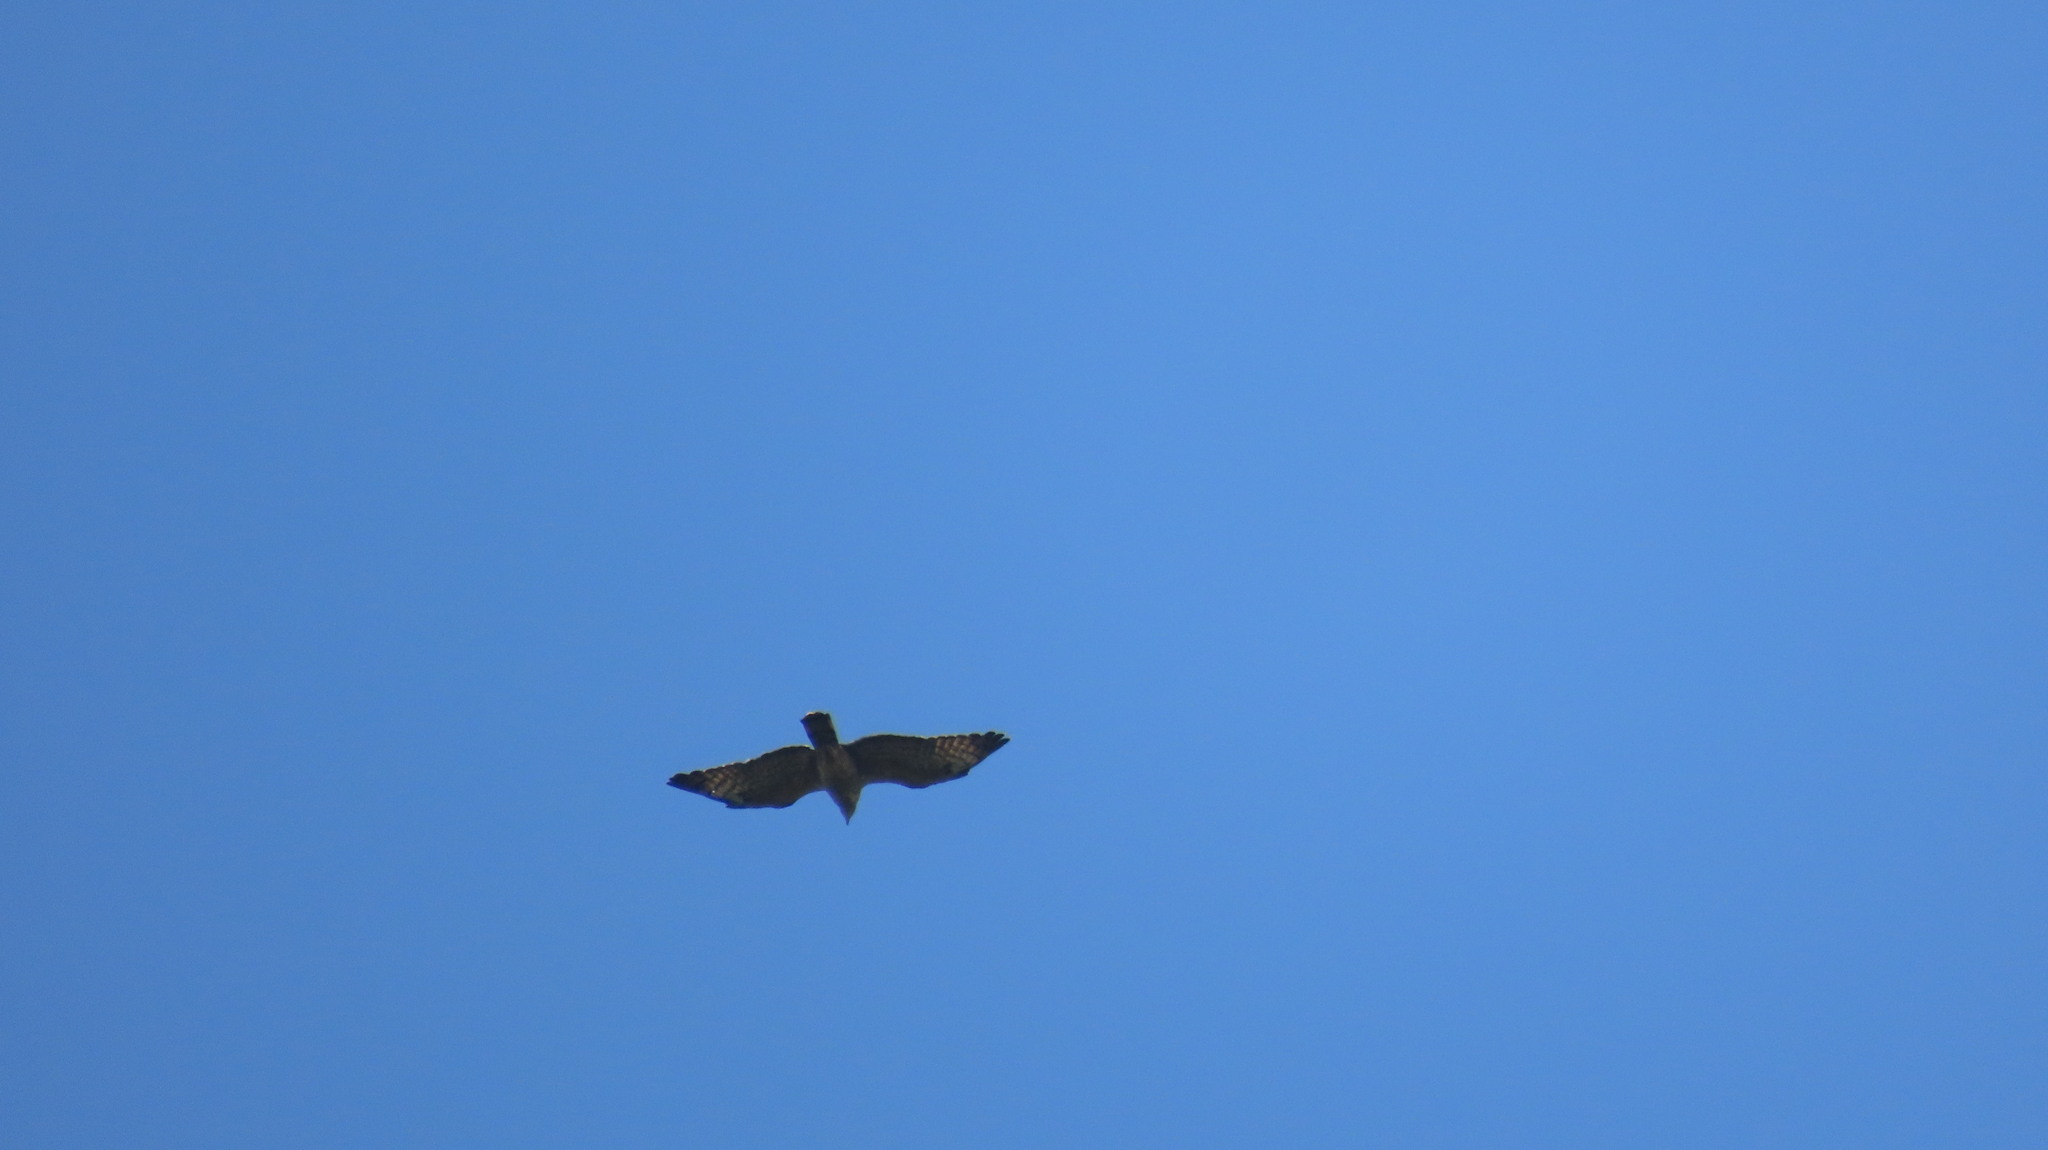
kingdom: Animalia
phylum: Chordata
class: Aves
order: Accipitriformes
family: Accipitridae
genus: Pernis
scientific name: Pernis ptilorhynchus
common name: Crested honey buzzard
